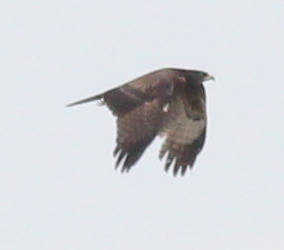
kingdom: Animalia
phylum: Chordata
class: Aves
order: Accipitriformes
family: Accipitridae
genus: Pernis
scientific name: Pernis ptilorhynchus
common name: Crested honey buzzard
